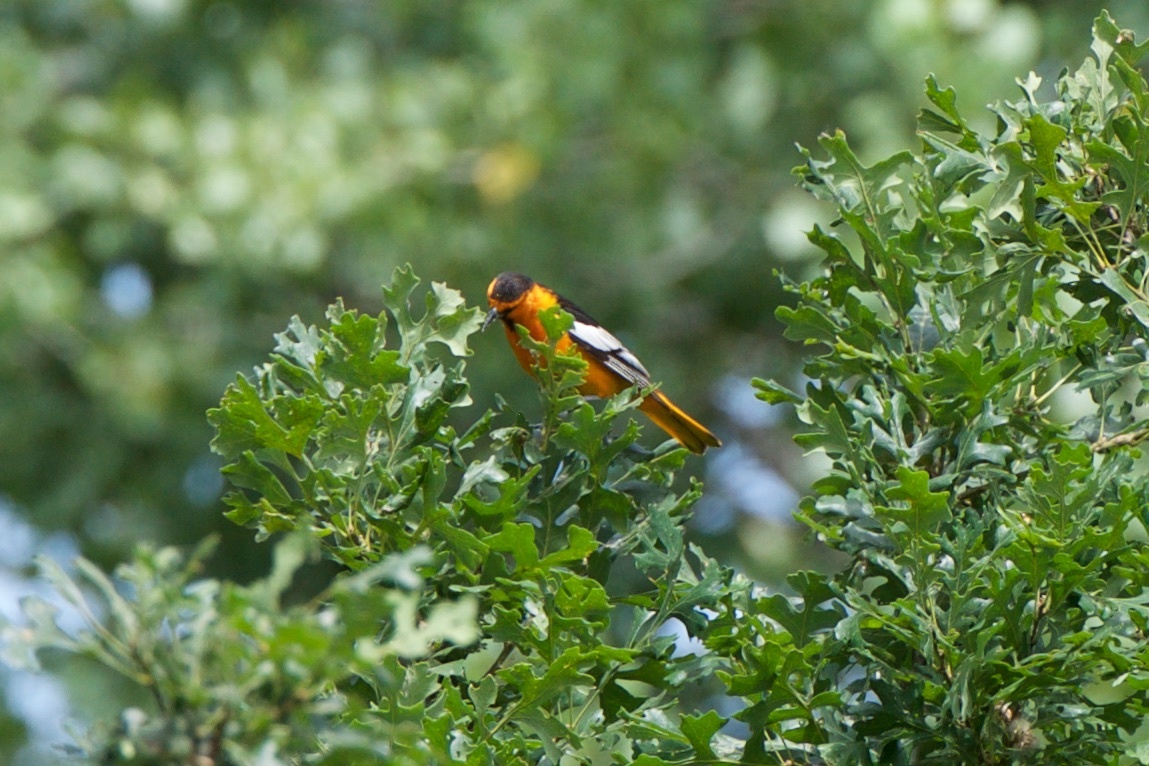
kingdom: Animalia
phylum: Chordata
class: Aves
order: Passeriformes
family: Icteridae
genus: Icterus
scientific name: Icterus bullockii
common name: Bullock's oriole
